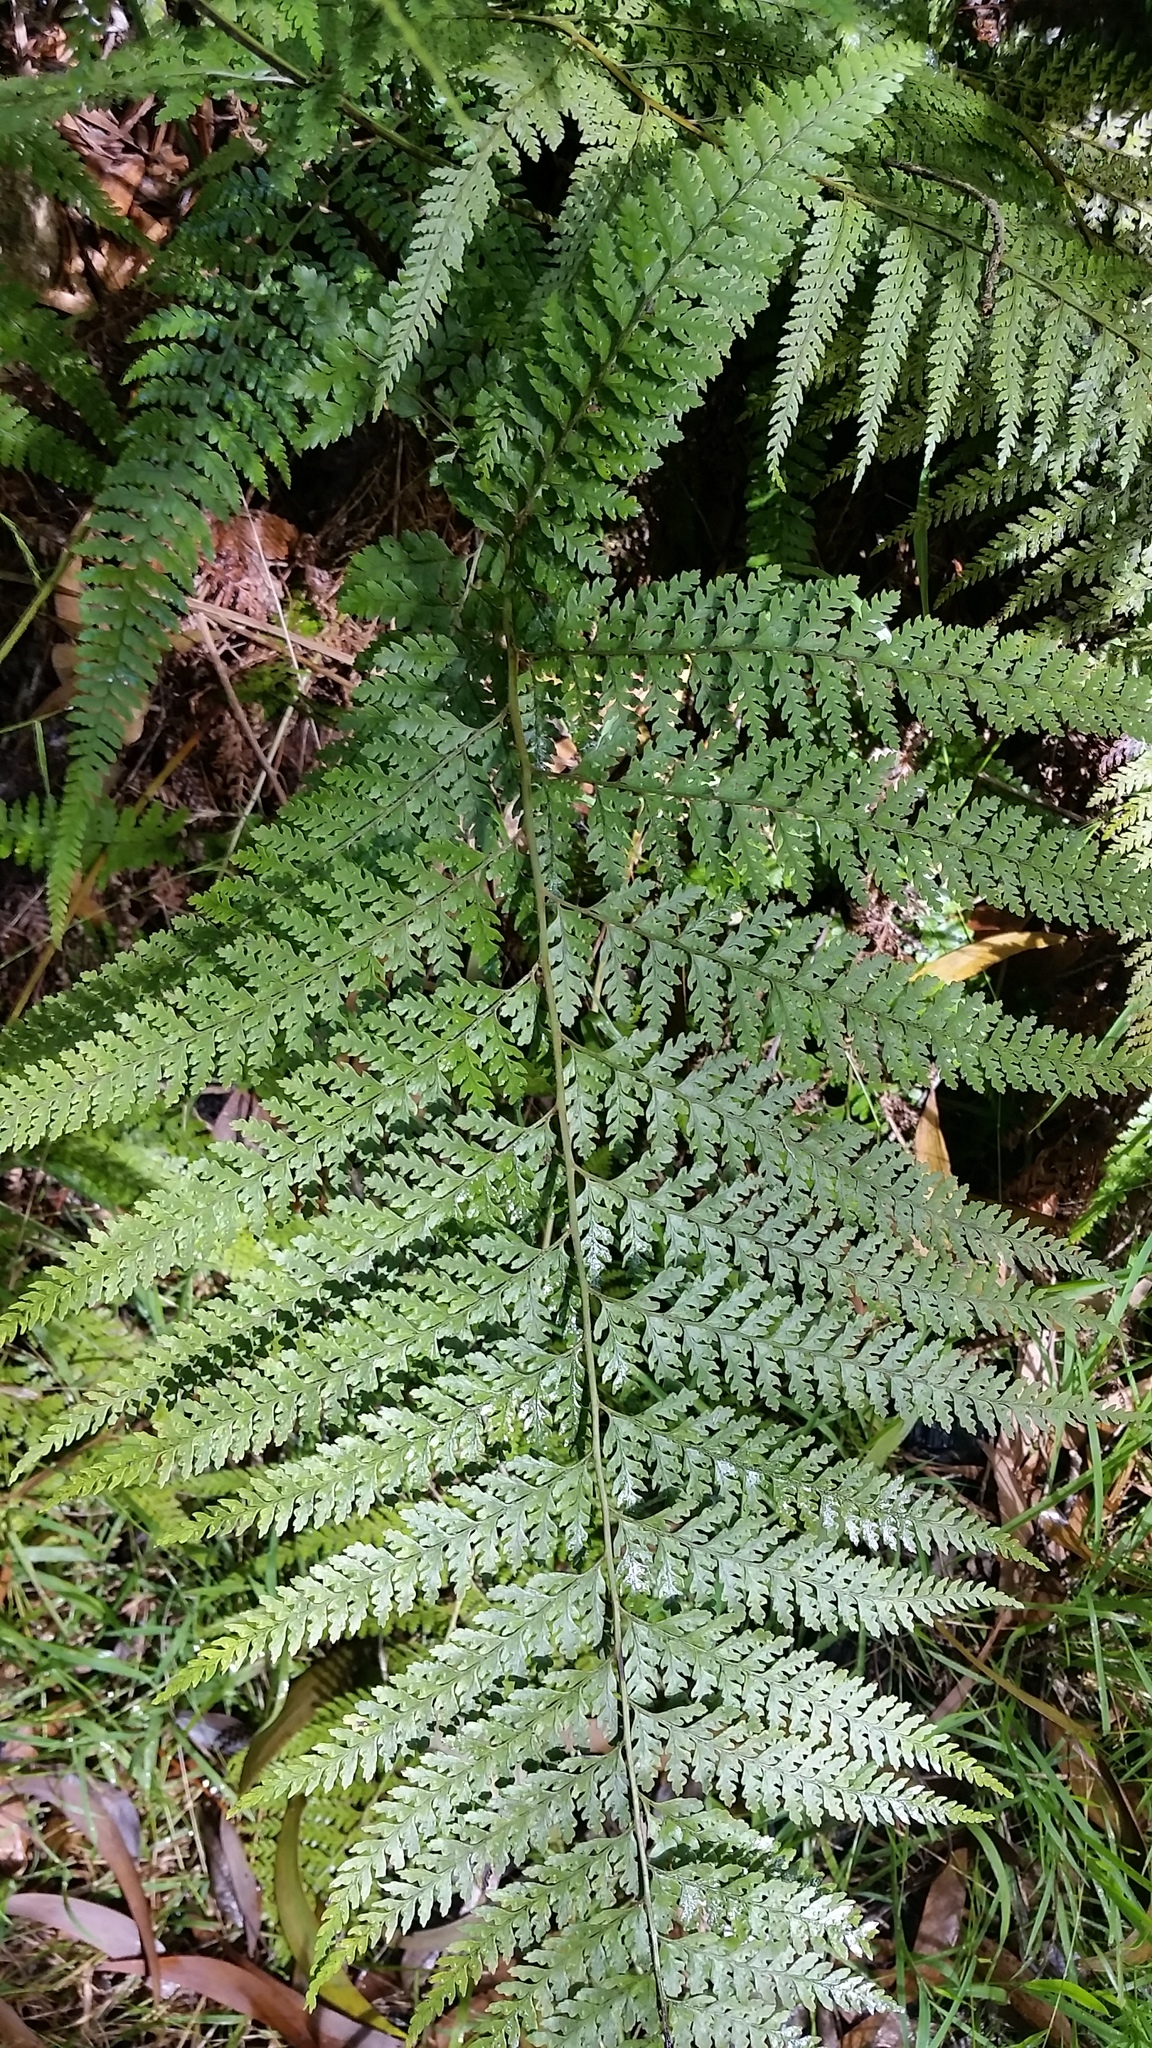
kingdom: Plantae
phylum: Tracheophyta
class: Polypodiopsida
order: Polypodiales
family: Dennstaedtiaceae
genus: Microlepia
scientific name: Microlepia setosa
